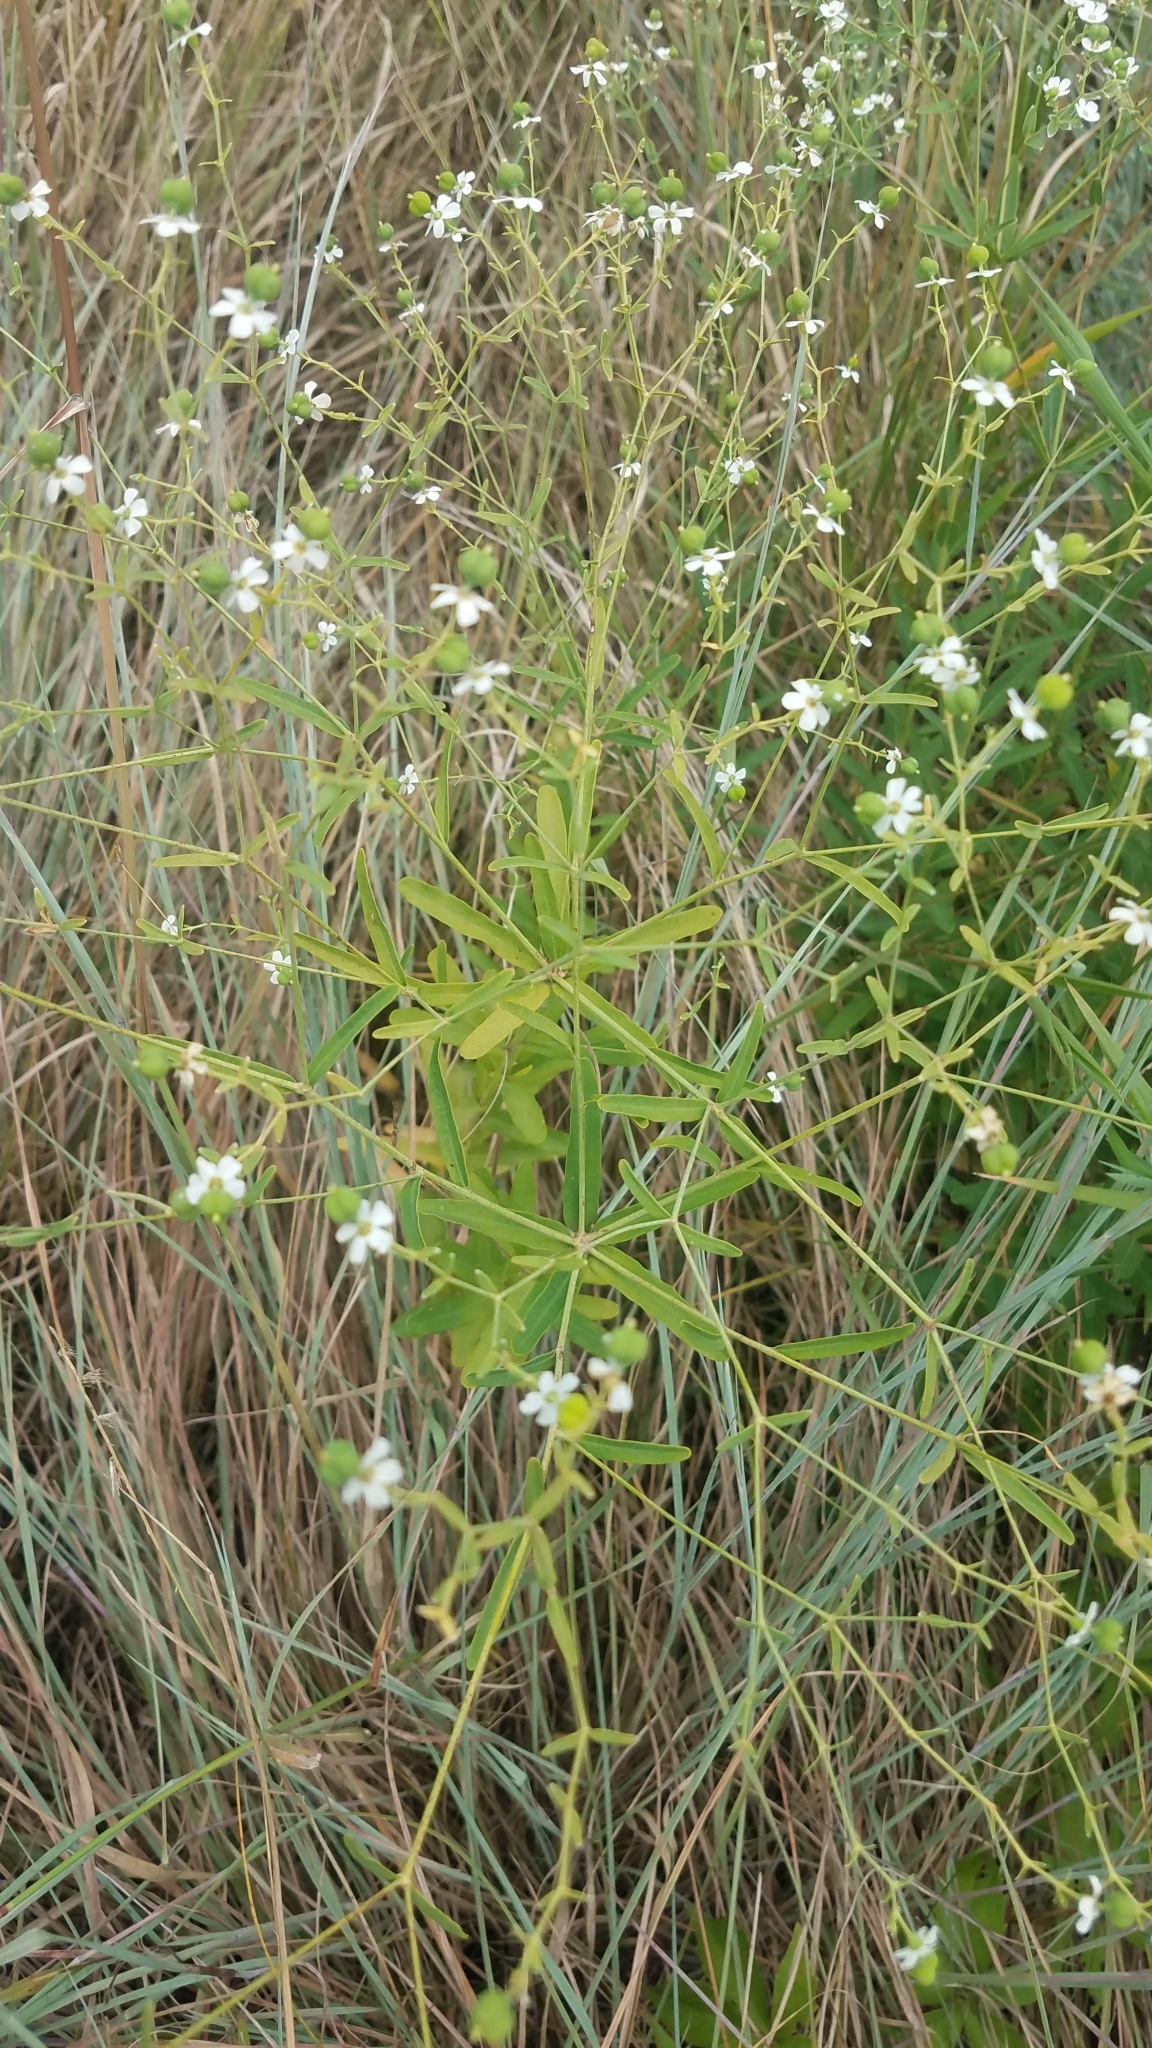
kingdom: Plantae
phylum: Tracheophyta
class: Magnoliopsida
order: Malpighiales
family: Euphorbiaceae
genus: Euphorbia
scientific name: Euphorbia corollata
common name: Flowering spurge
